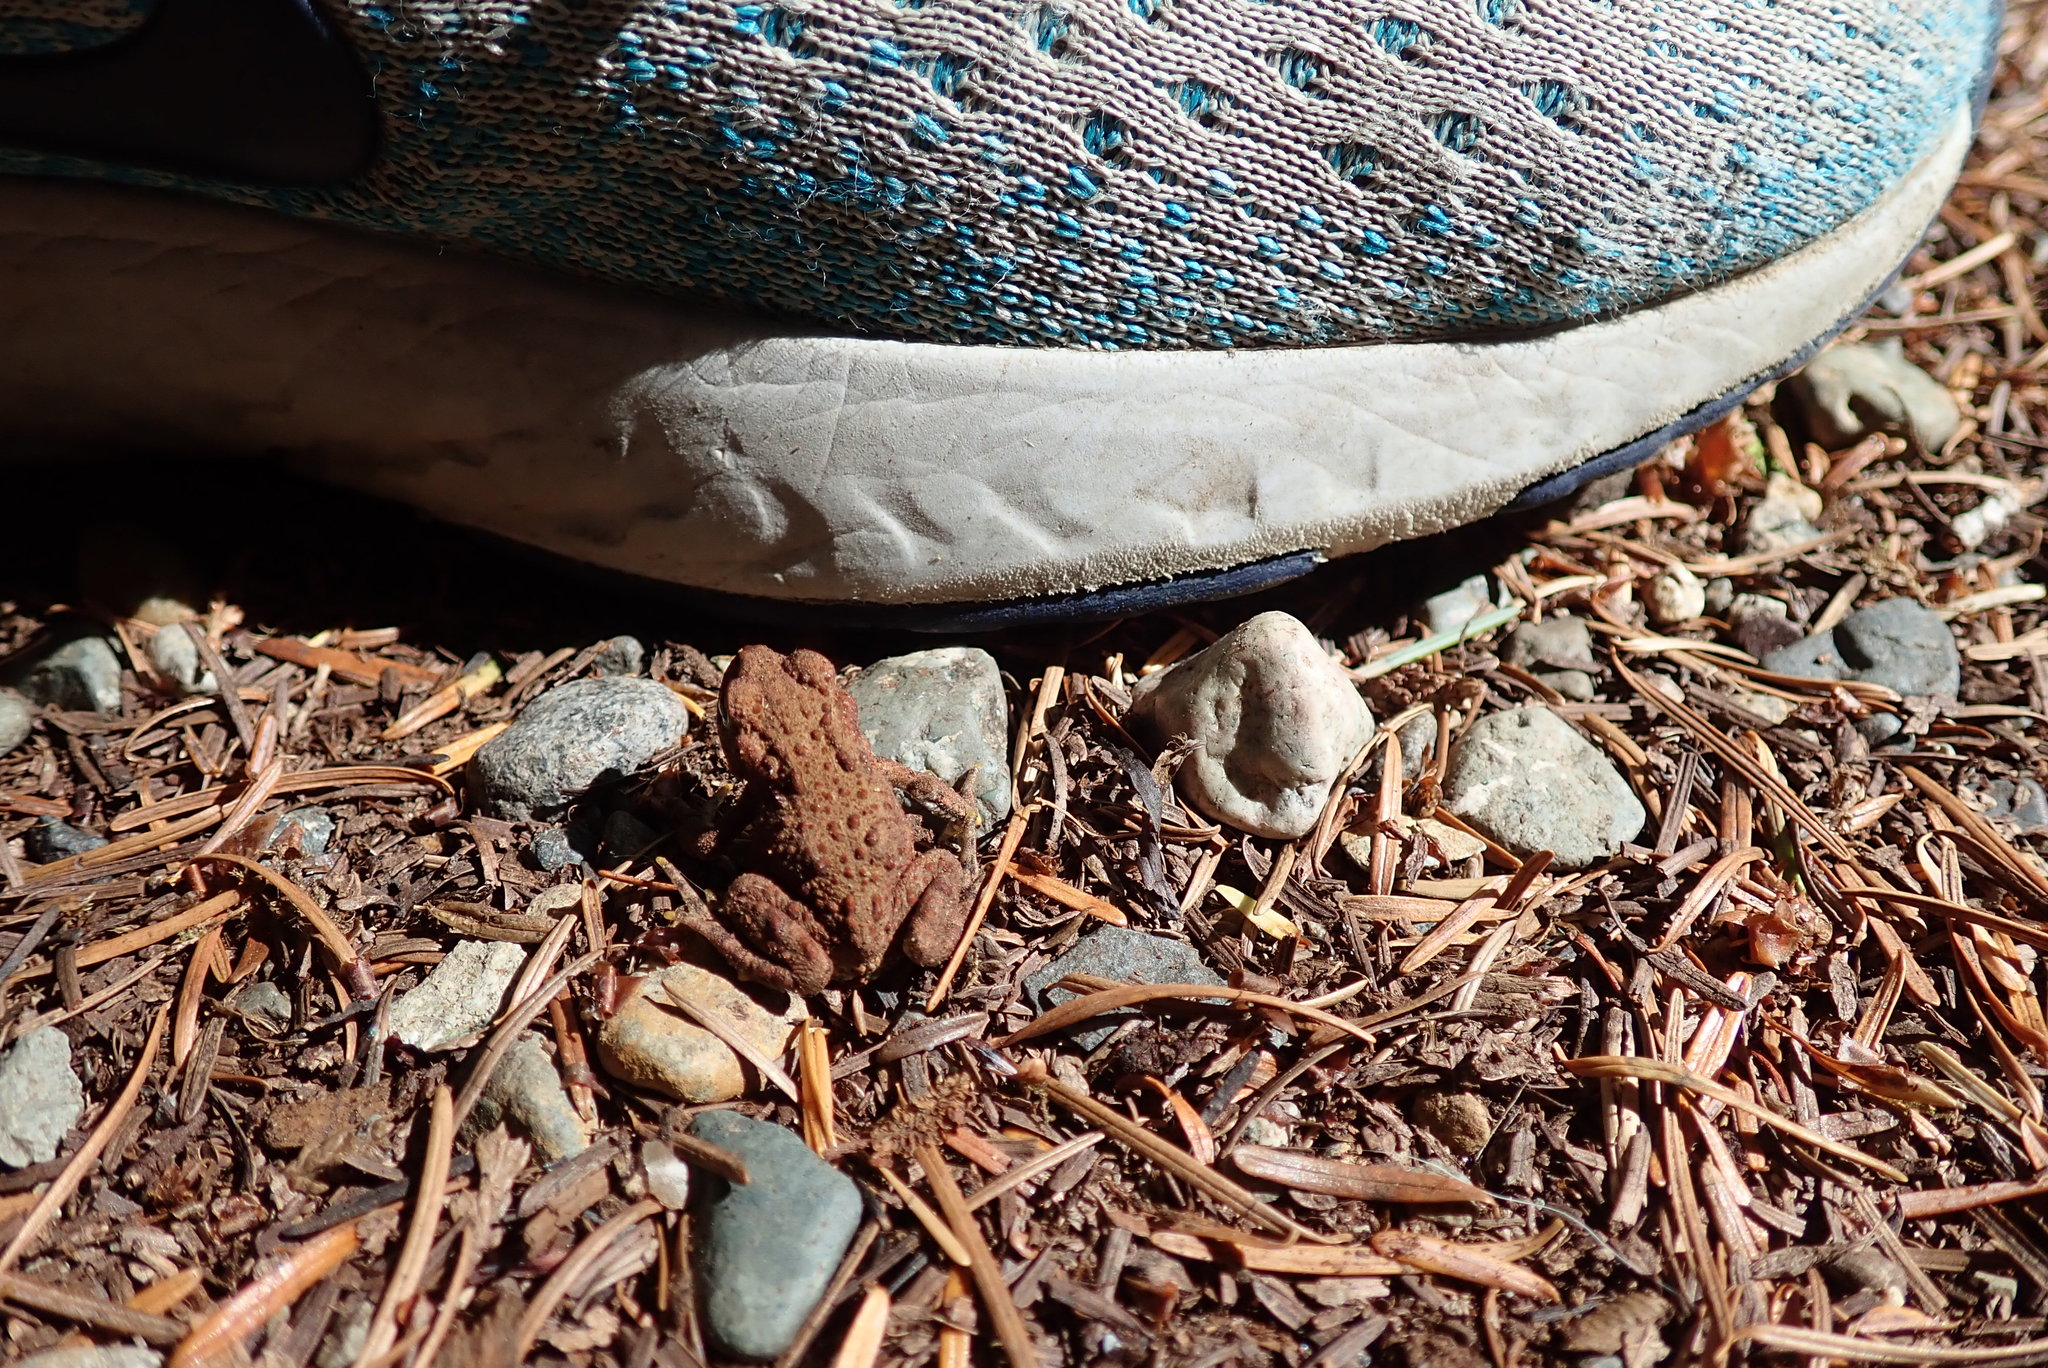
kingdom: Animalia
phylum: Chordata
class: Amphibia
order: Anura
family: Bufonidae
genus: Anaxyrus
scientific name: Anaxyrus boreas
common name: Western toad
